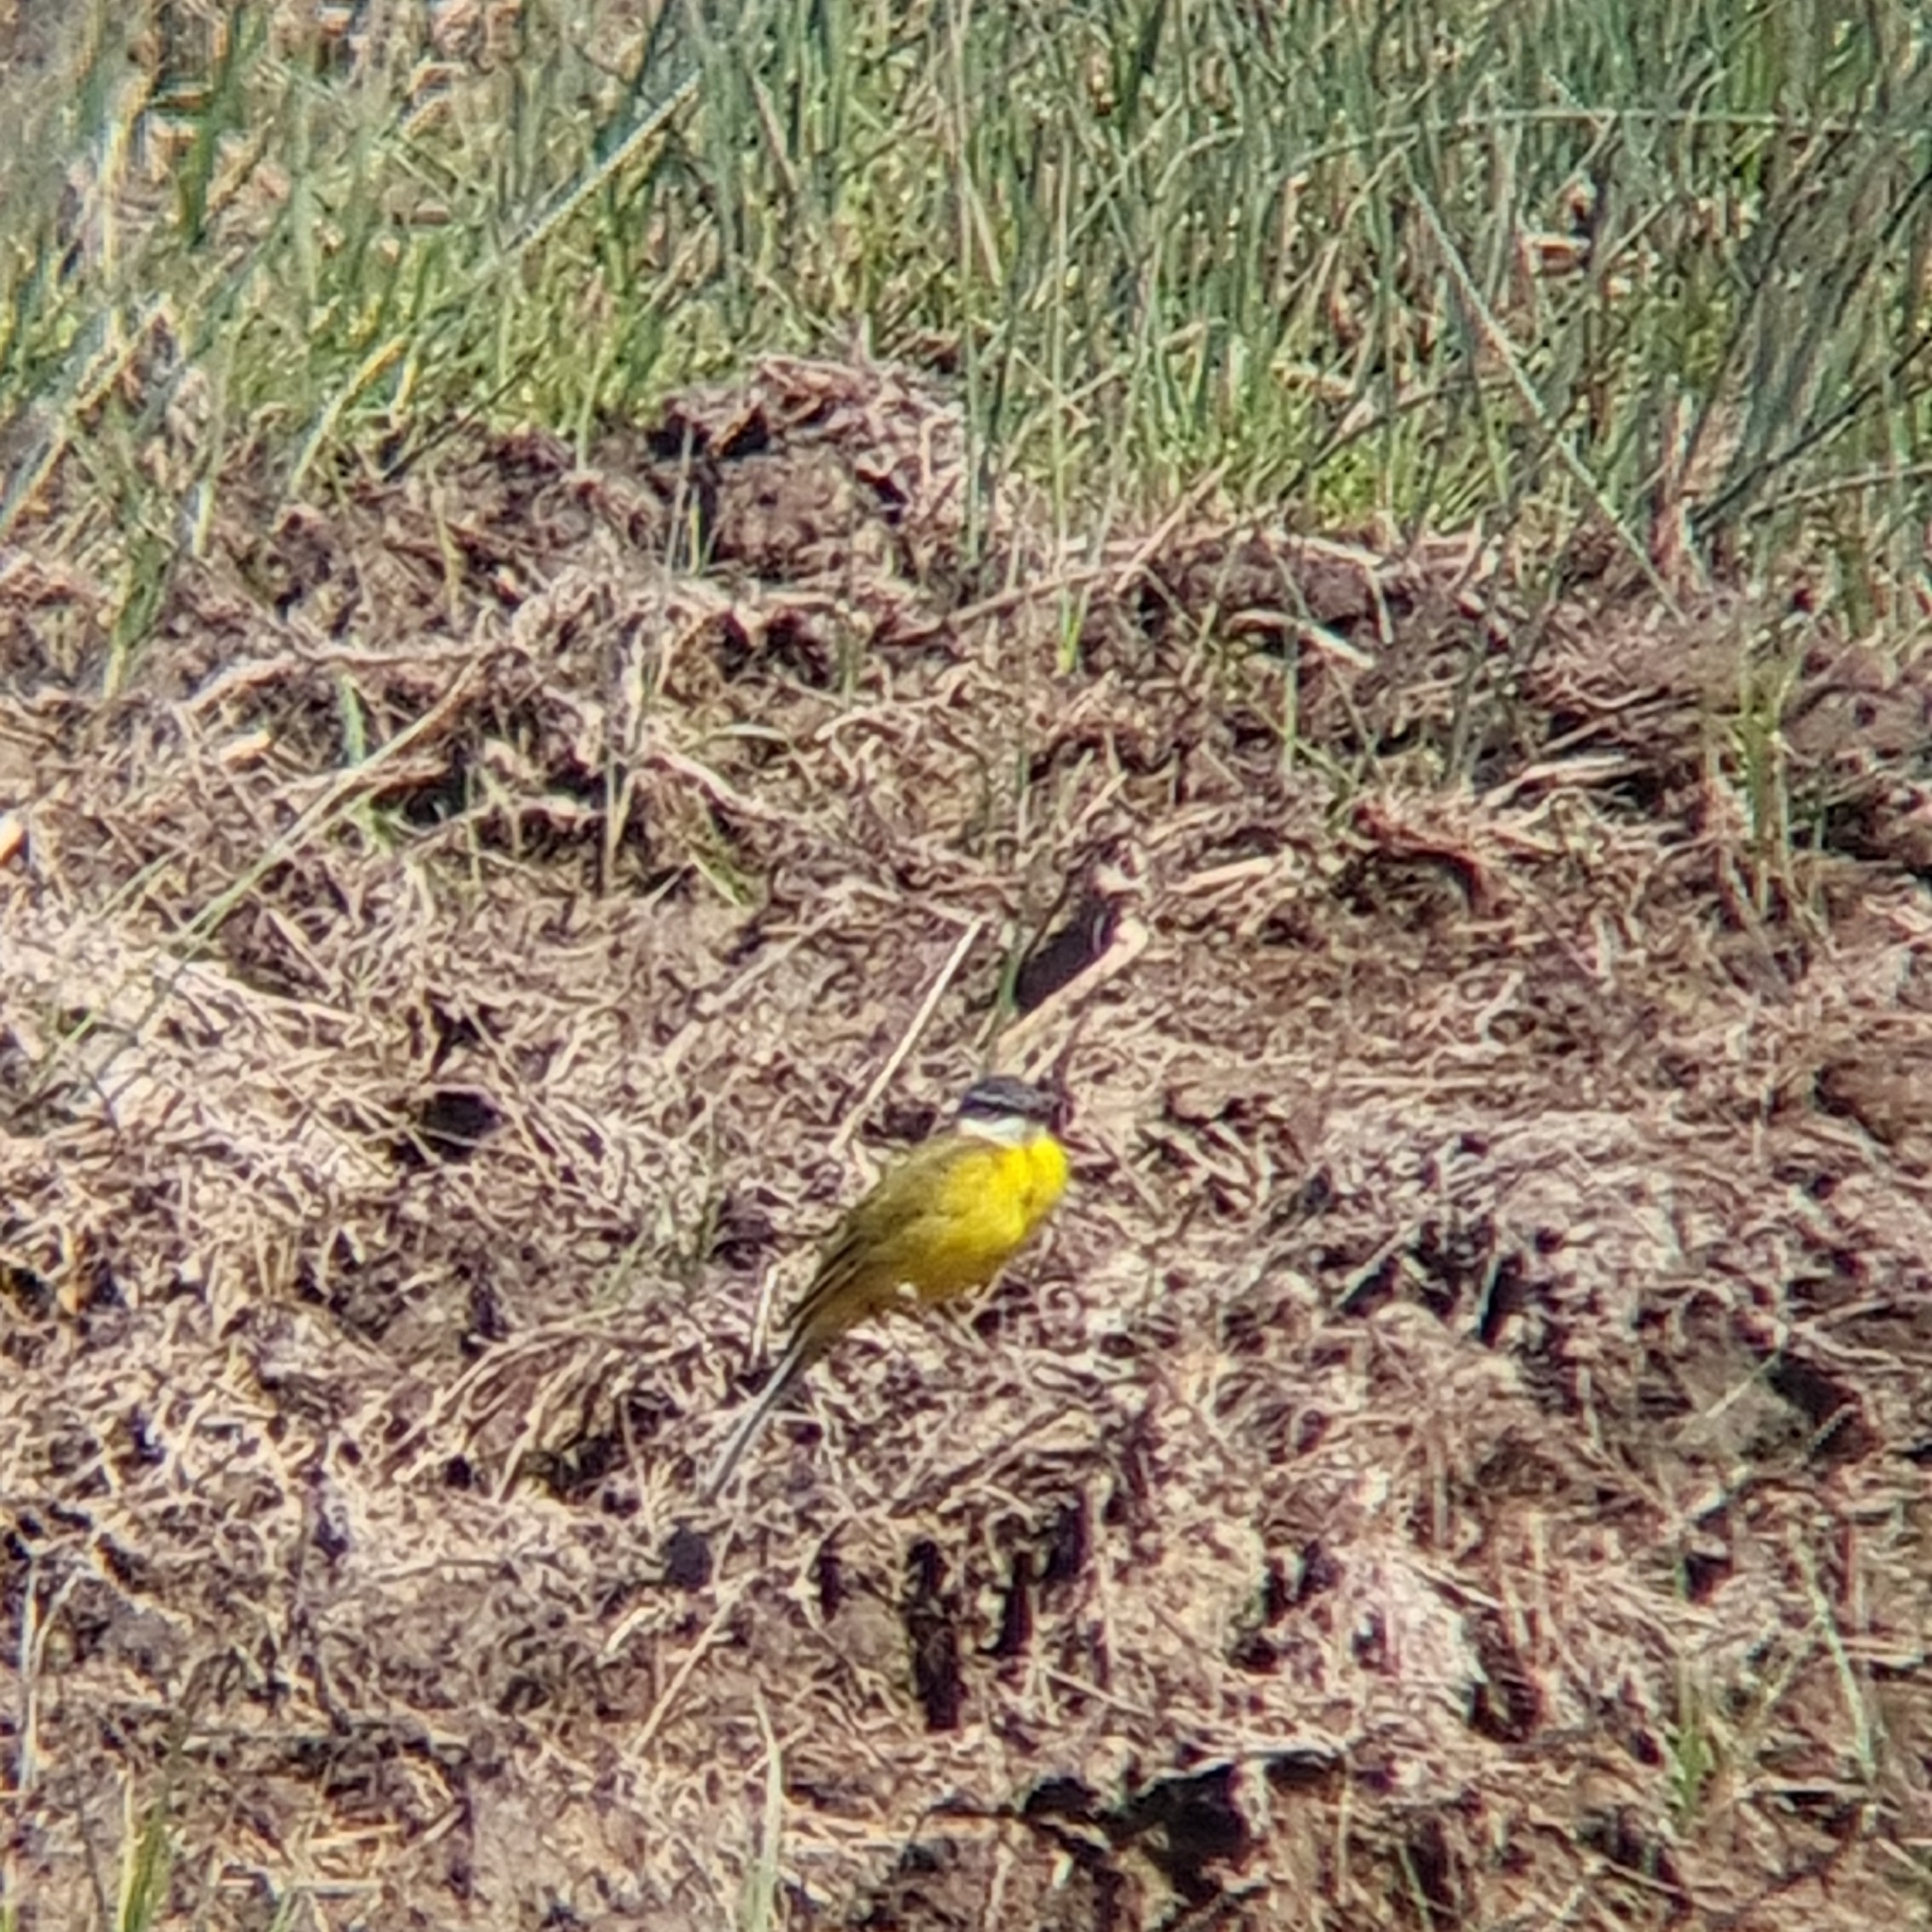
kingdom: Animalia
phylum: Chordata
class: Aves
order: Passeriformes
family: Motacillidae
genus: Motacilla
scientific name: Motacilla flava
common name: Western yellow wagtail
